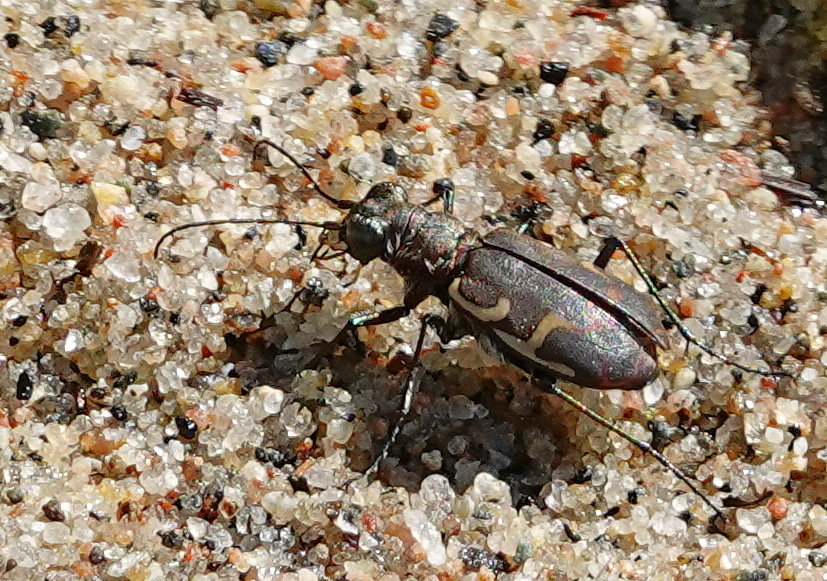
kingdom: Animalia
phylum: Arthropoda
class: Insecta
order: Coleoptera
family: Carabidae
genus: Cicindela
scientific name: Cicindela repanda
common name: Bronzed tiger beetle
